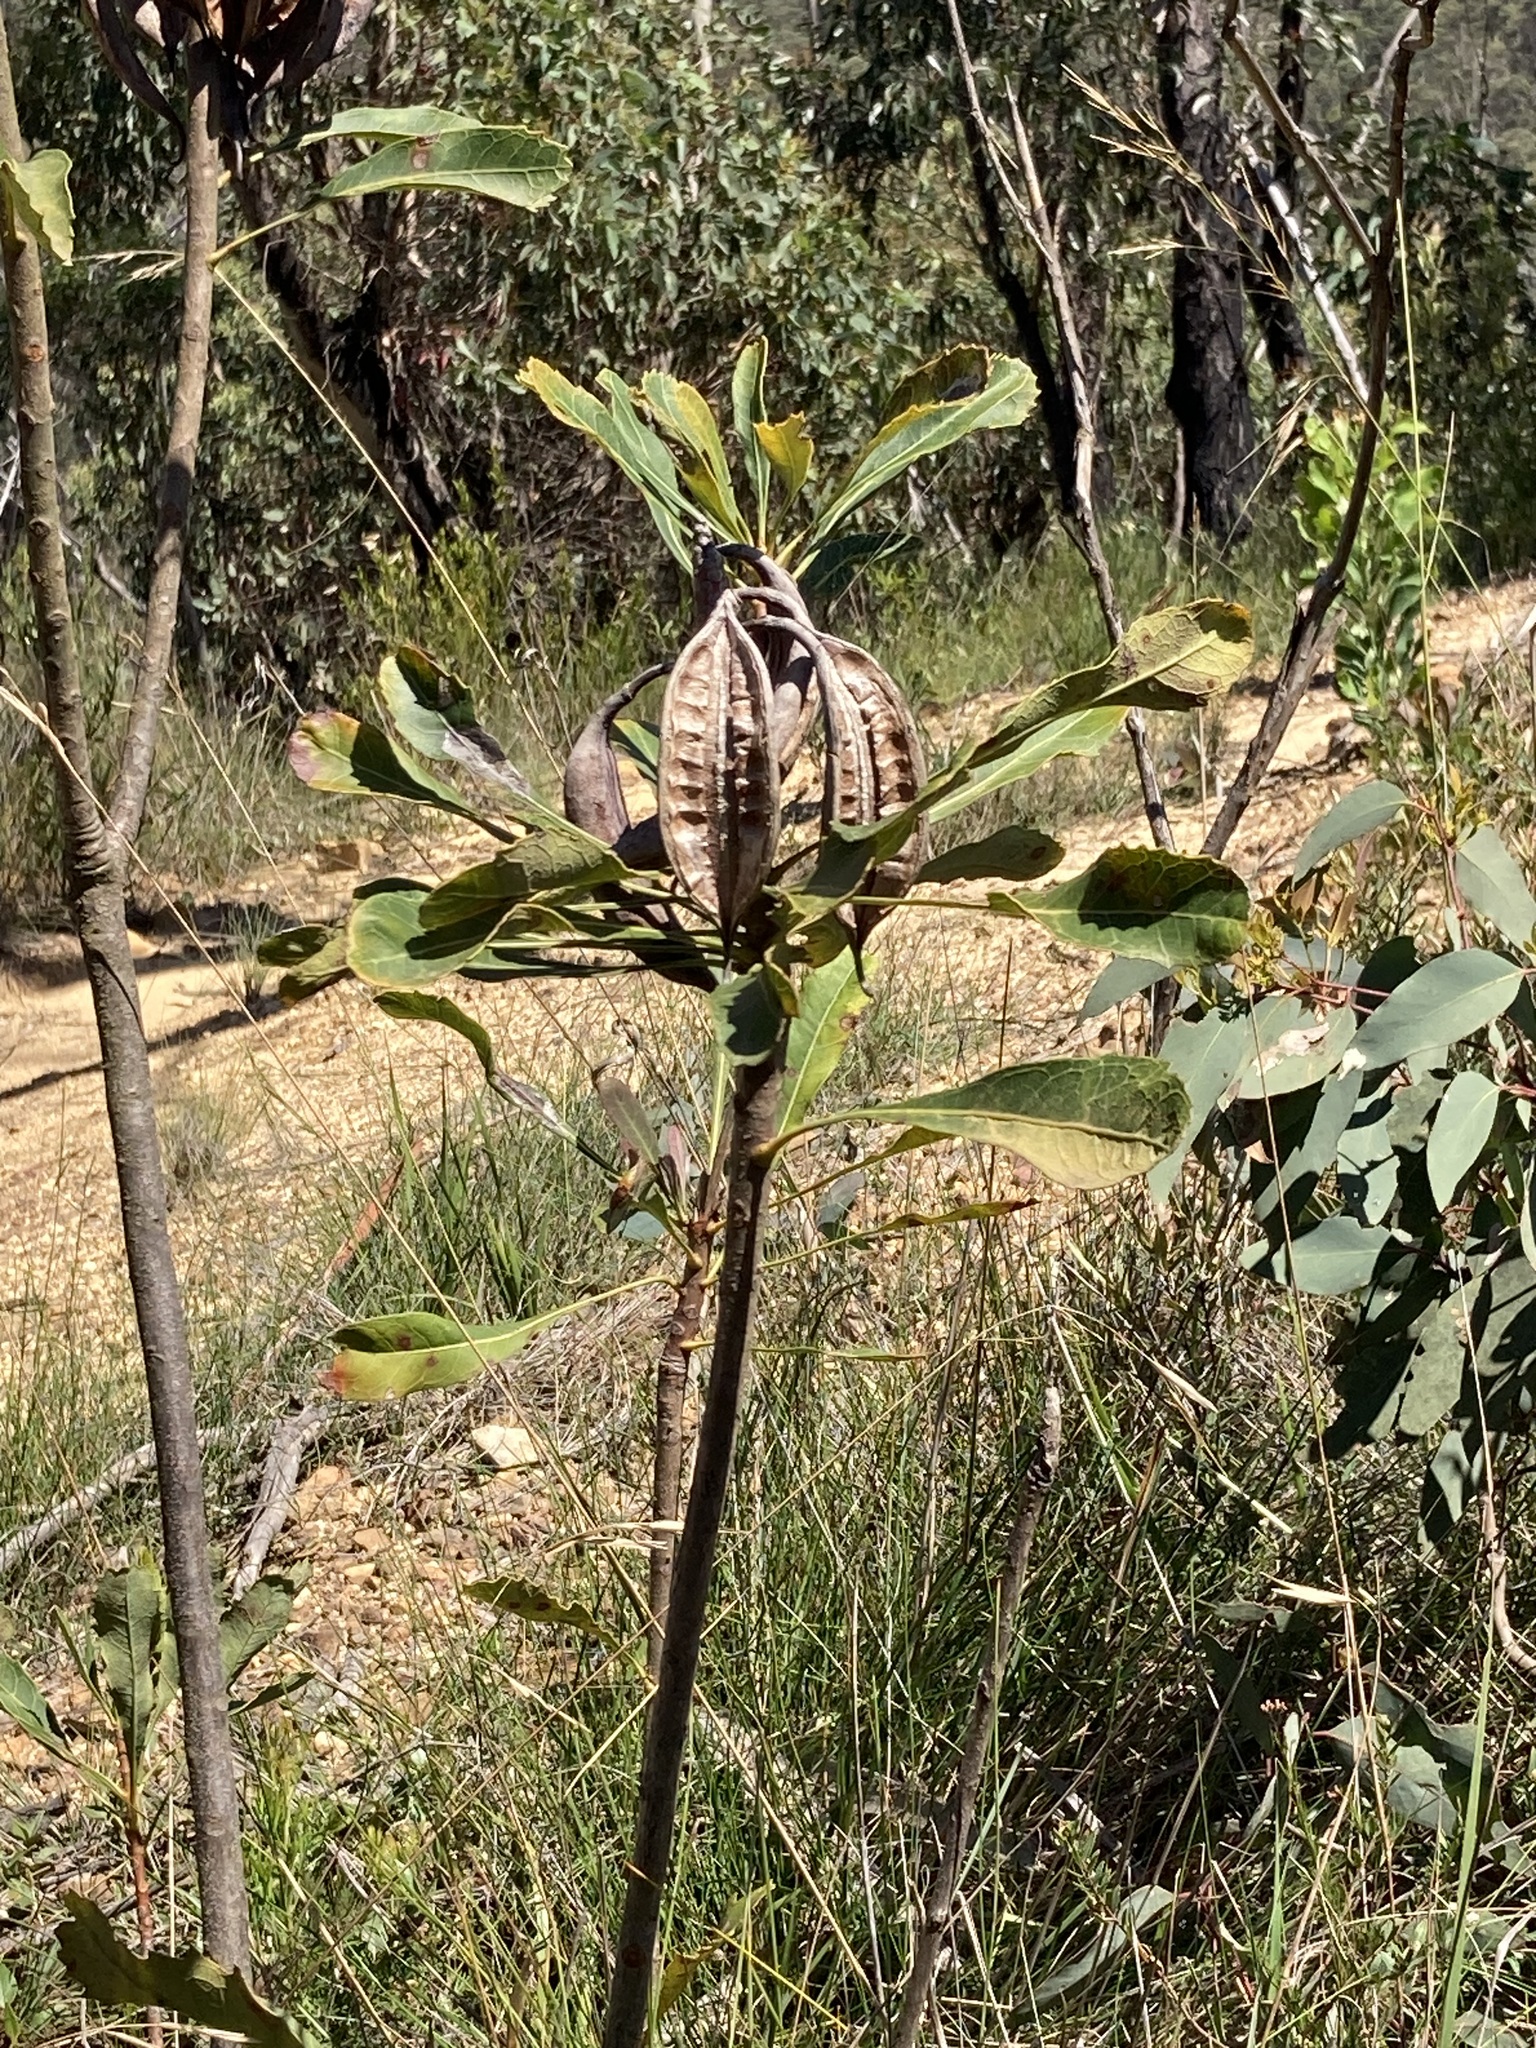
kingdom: Plantae
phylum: Tracheophyta
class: Magnoliopsida
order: Proteales
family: Proteaceae
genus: Telopea
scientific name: Telopea speciosissima
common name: New south wales waratah
